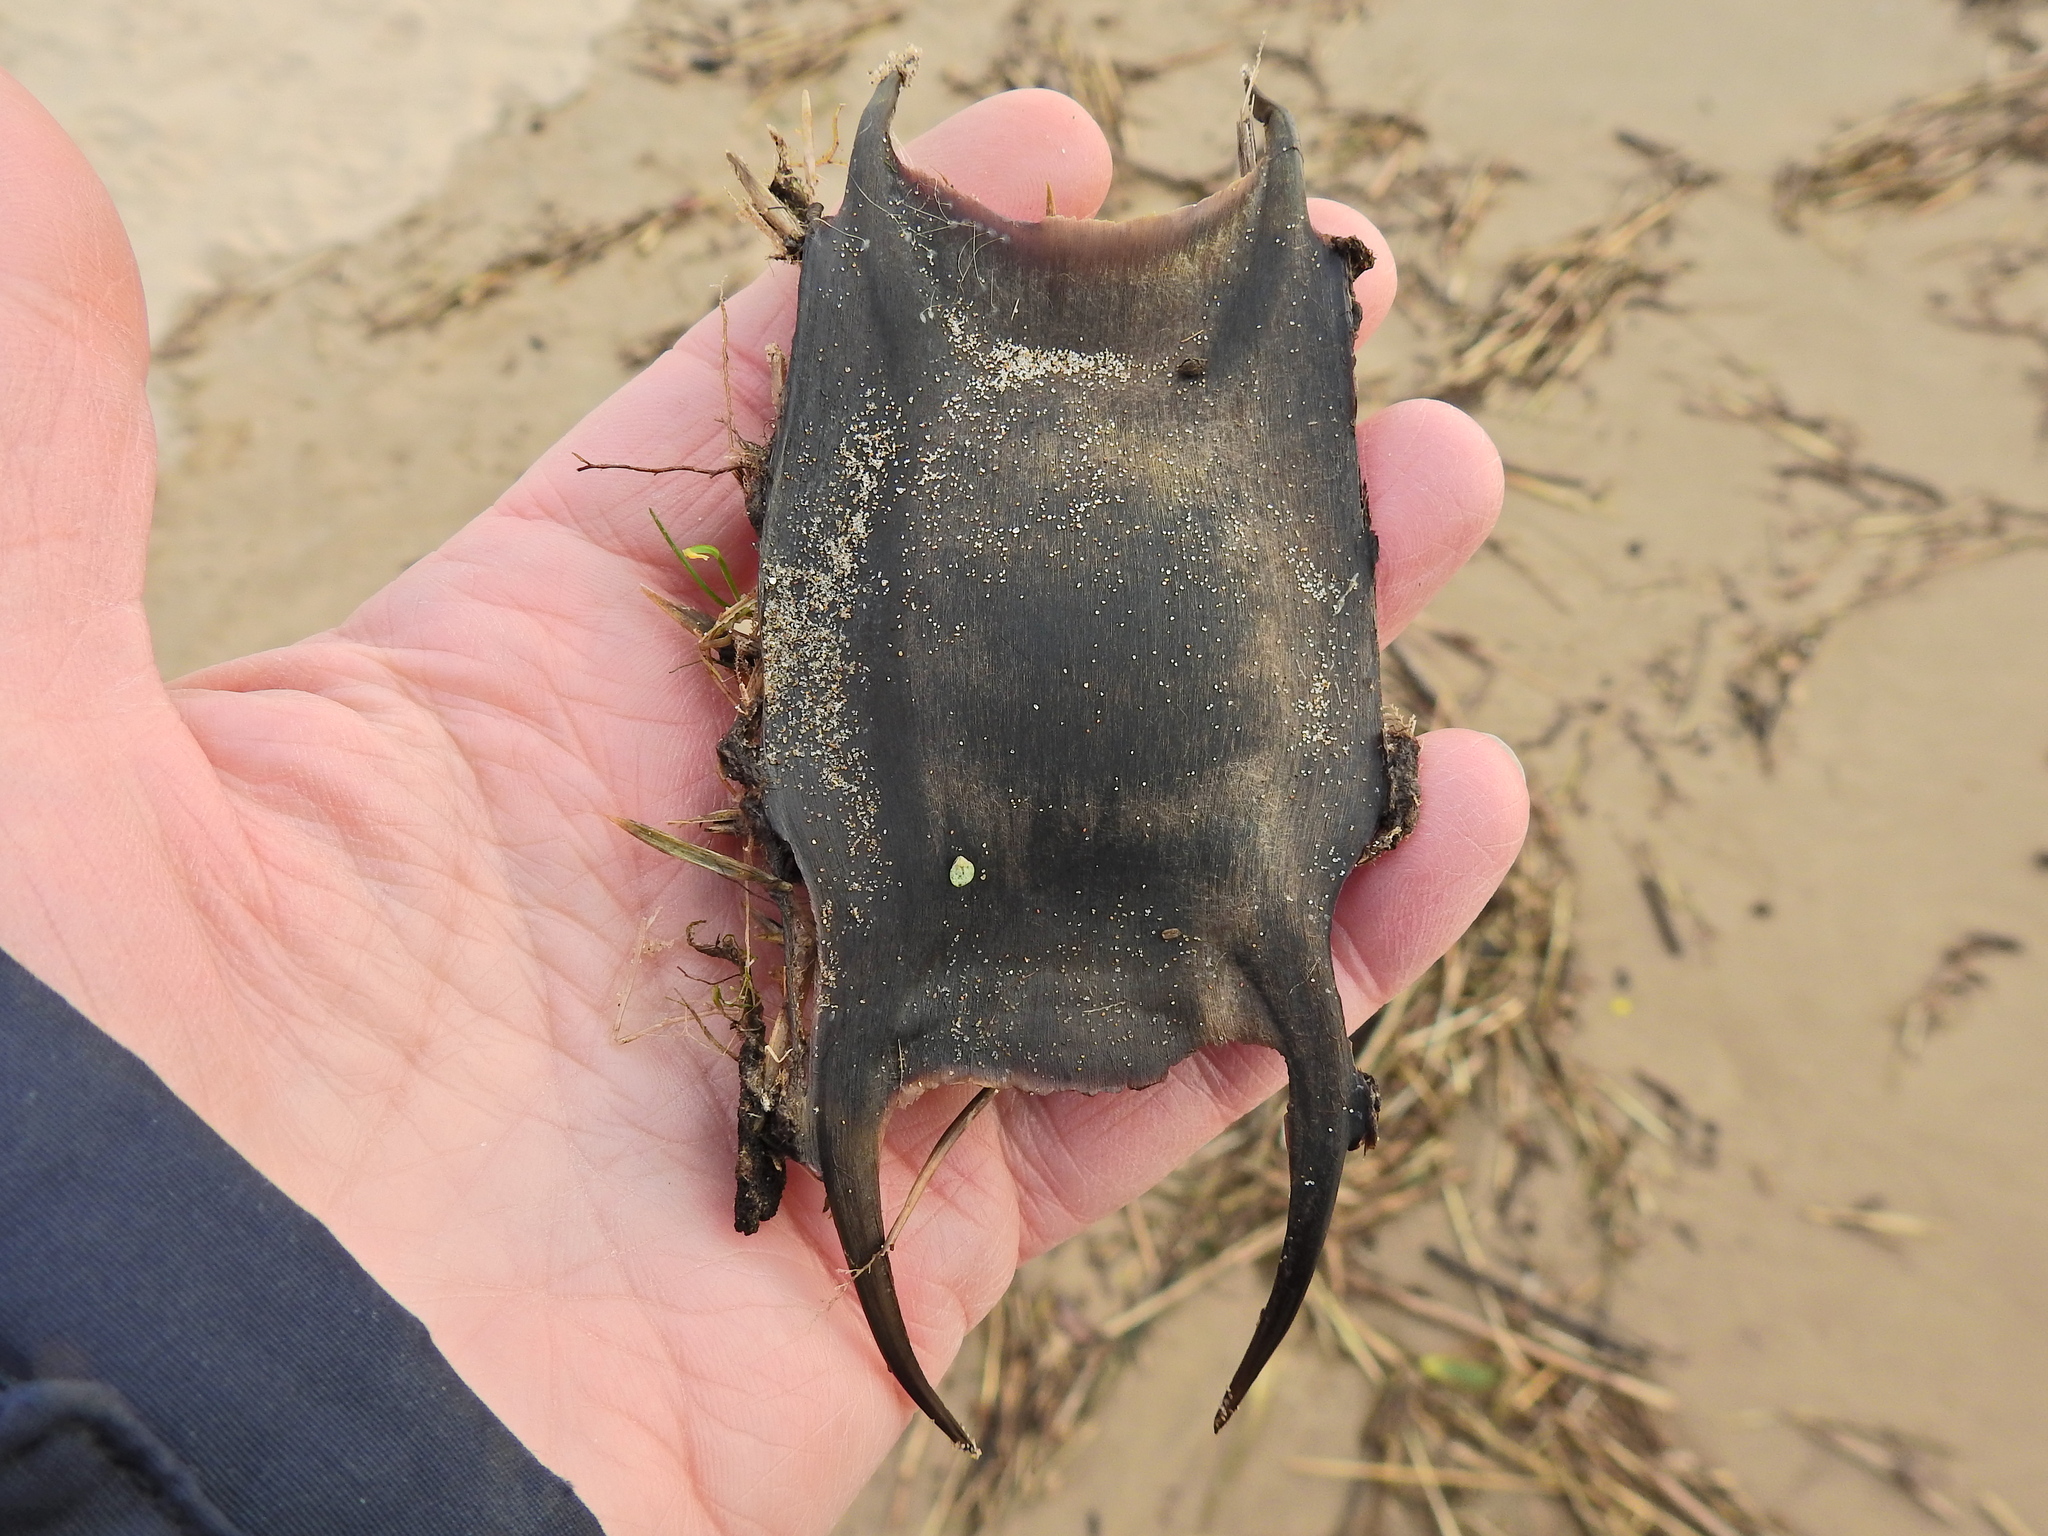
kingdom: Animalia
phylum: Chordata
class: Elasmobranchii
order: Rajiformes
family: Rajidae
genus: Raja
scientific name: Raja clavata
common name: Thornback ray
